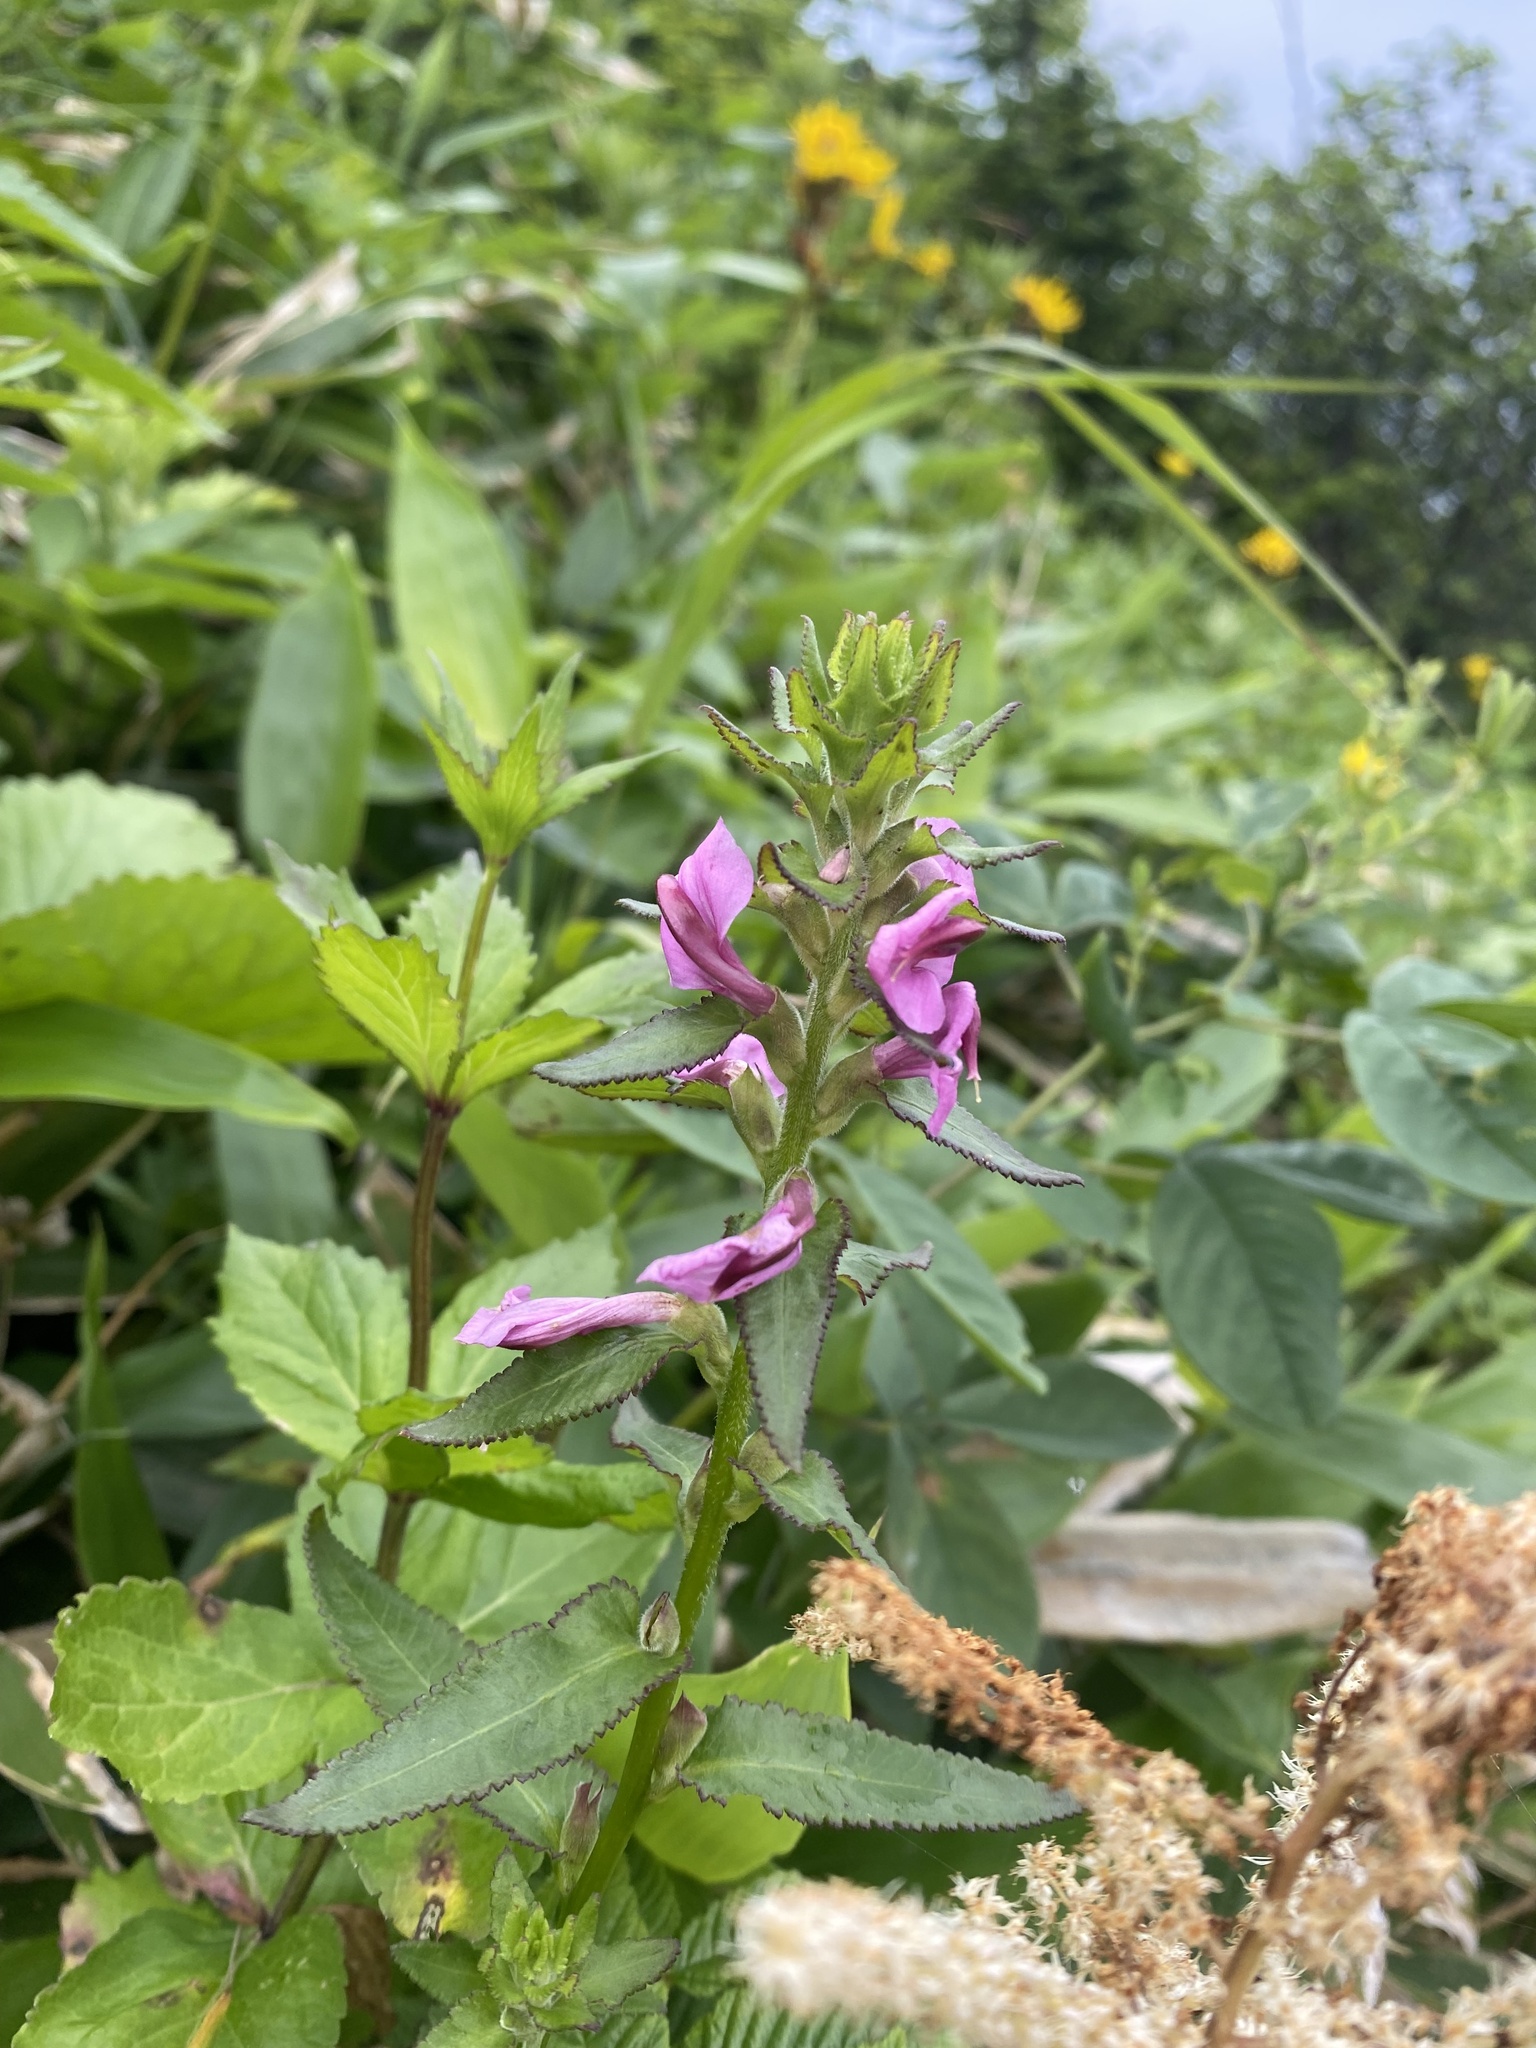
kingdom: Plantae
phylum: Tracheophyta
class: Magnoliopsida
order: Lamiales
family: Orobanchaceae
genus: Pedicularis
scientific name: Pedicularis resupinata
